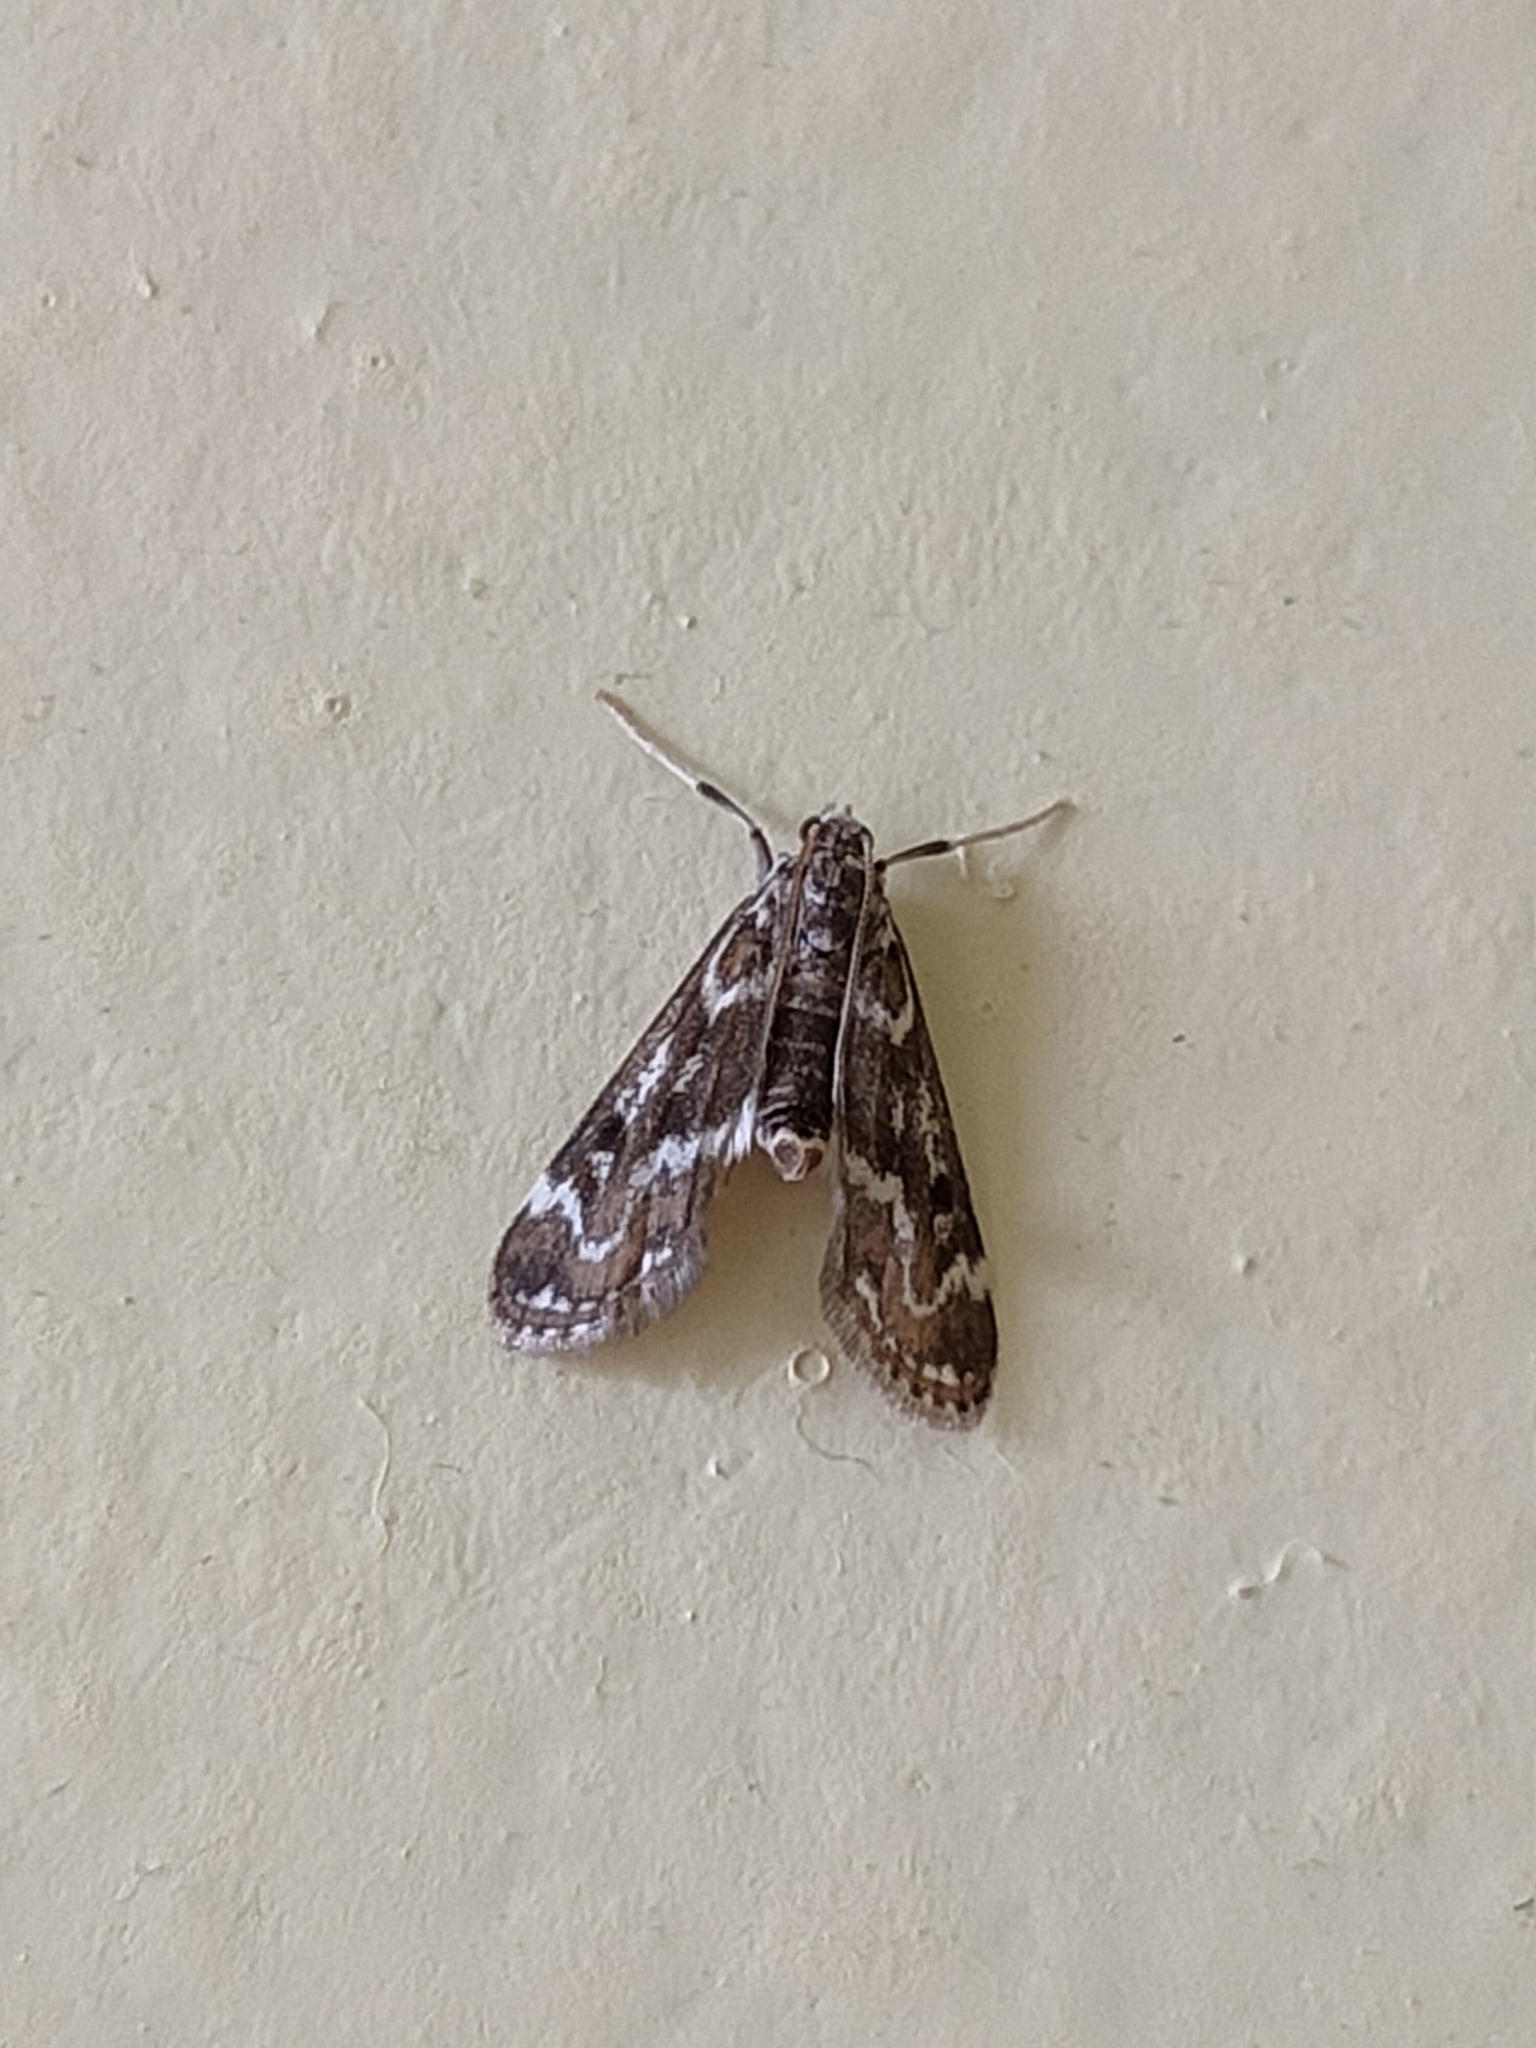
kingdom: Animalia
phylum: Arthropoda
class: Insecta
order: Lepidoptera
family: Crambidae
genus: Hygraula
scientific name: Hygraula nitens
